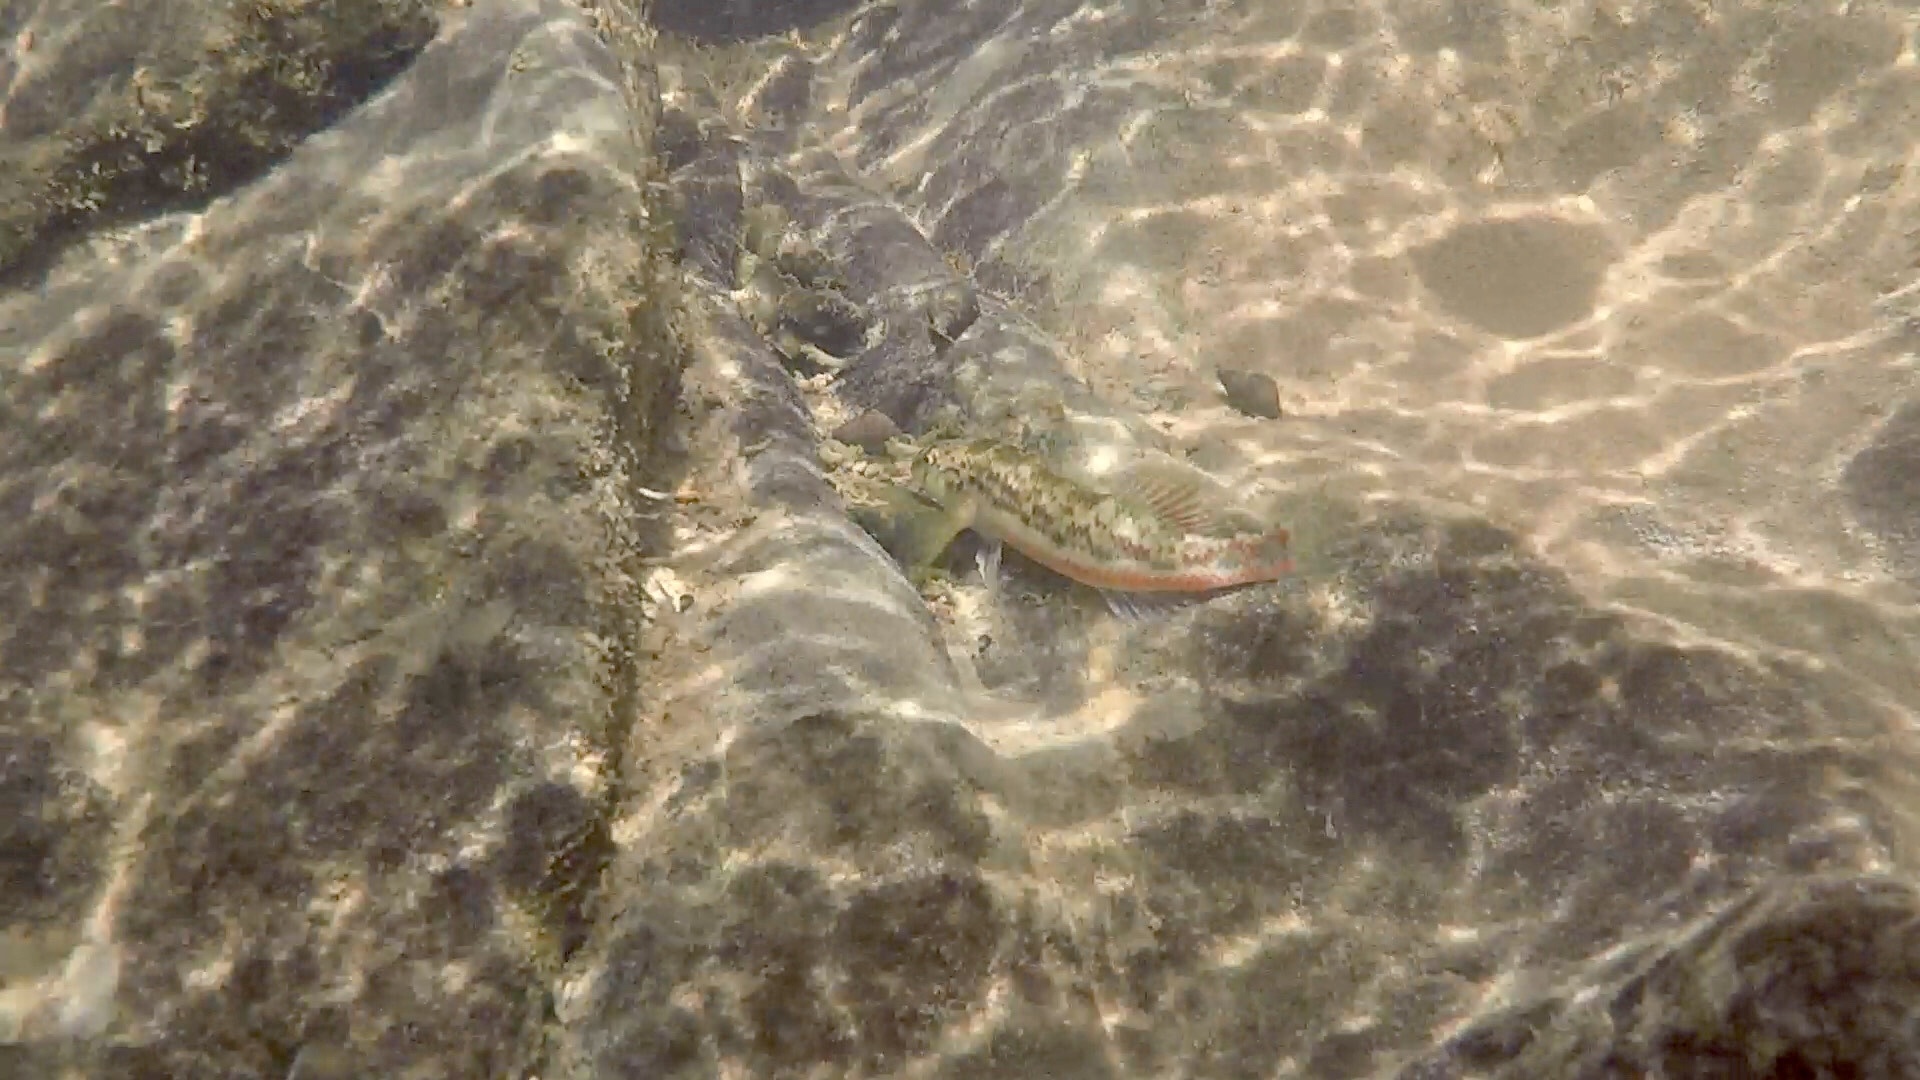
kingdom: Animalia
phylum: Chordata
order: Perciformes
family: Percidae
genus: Etheostoma
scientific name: Etheostoma chermocki
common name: Vermilion darter
